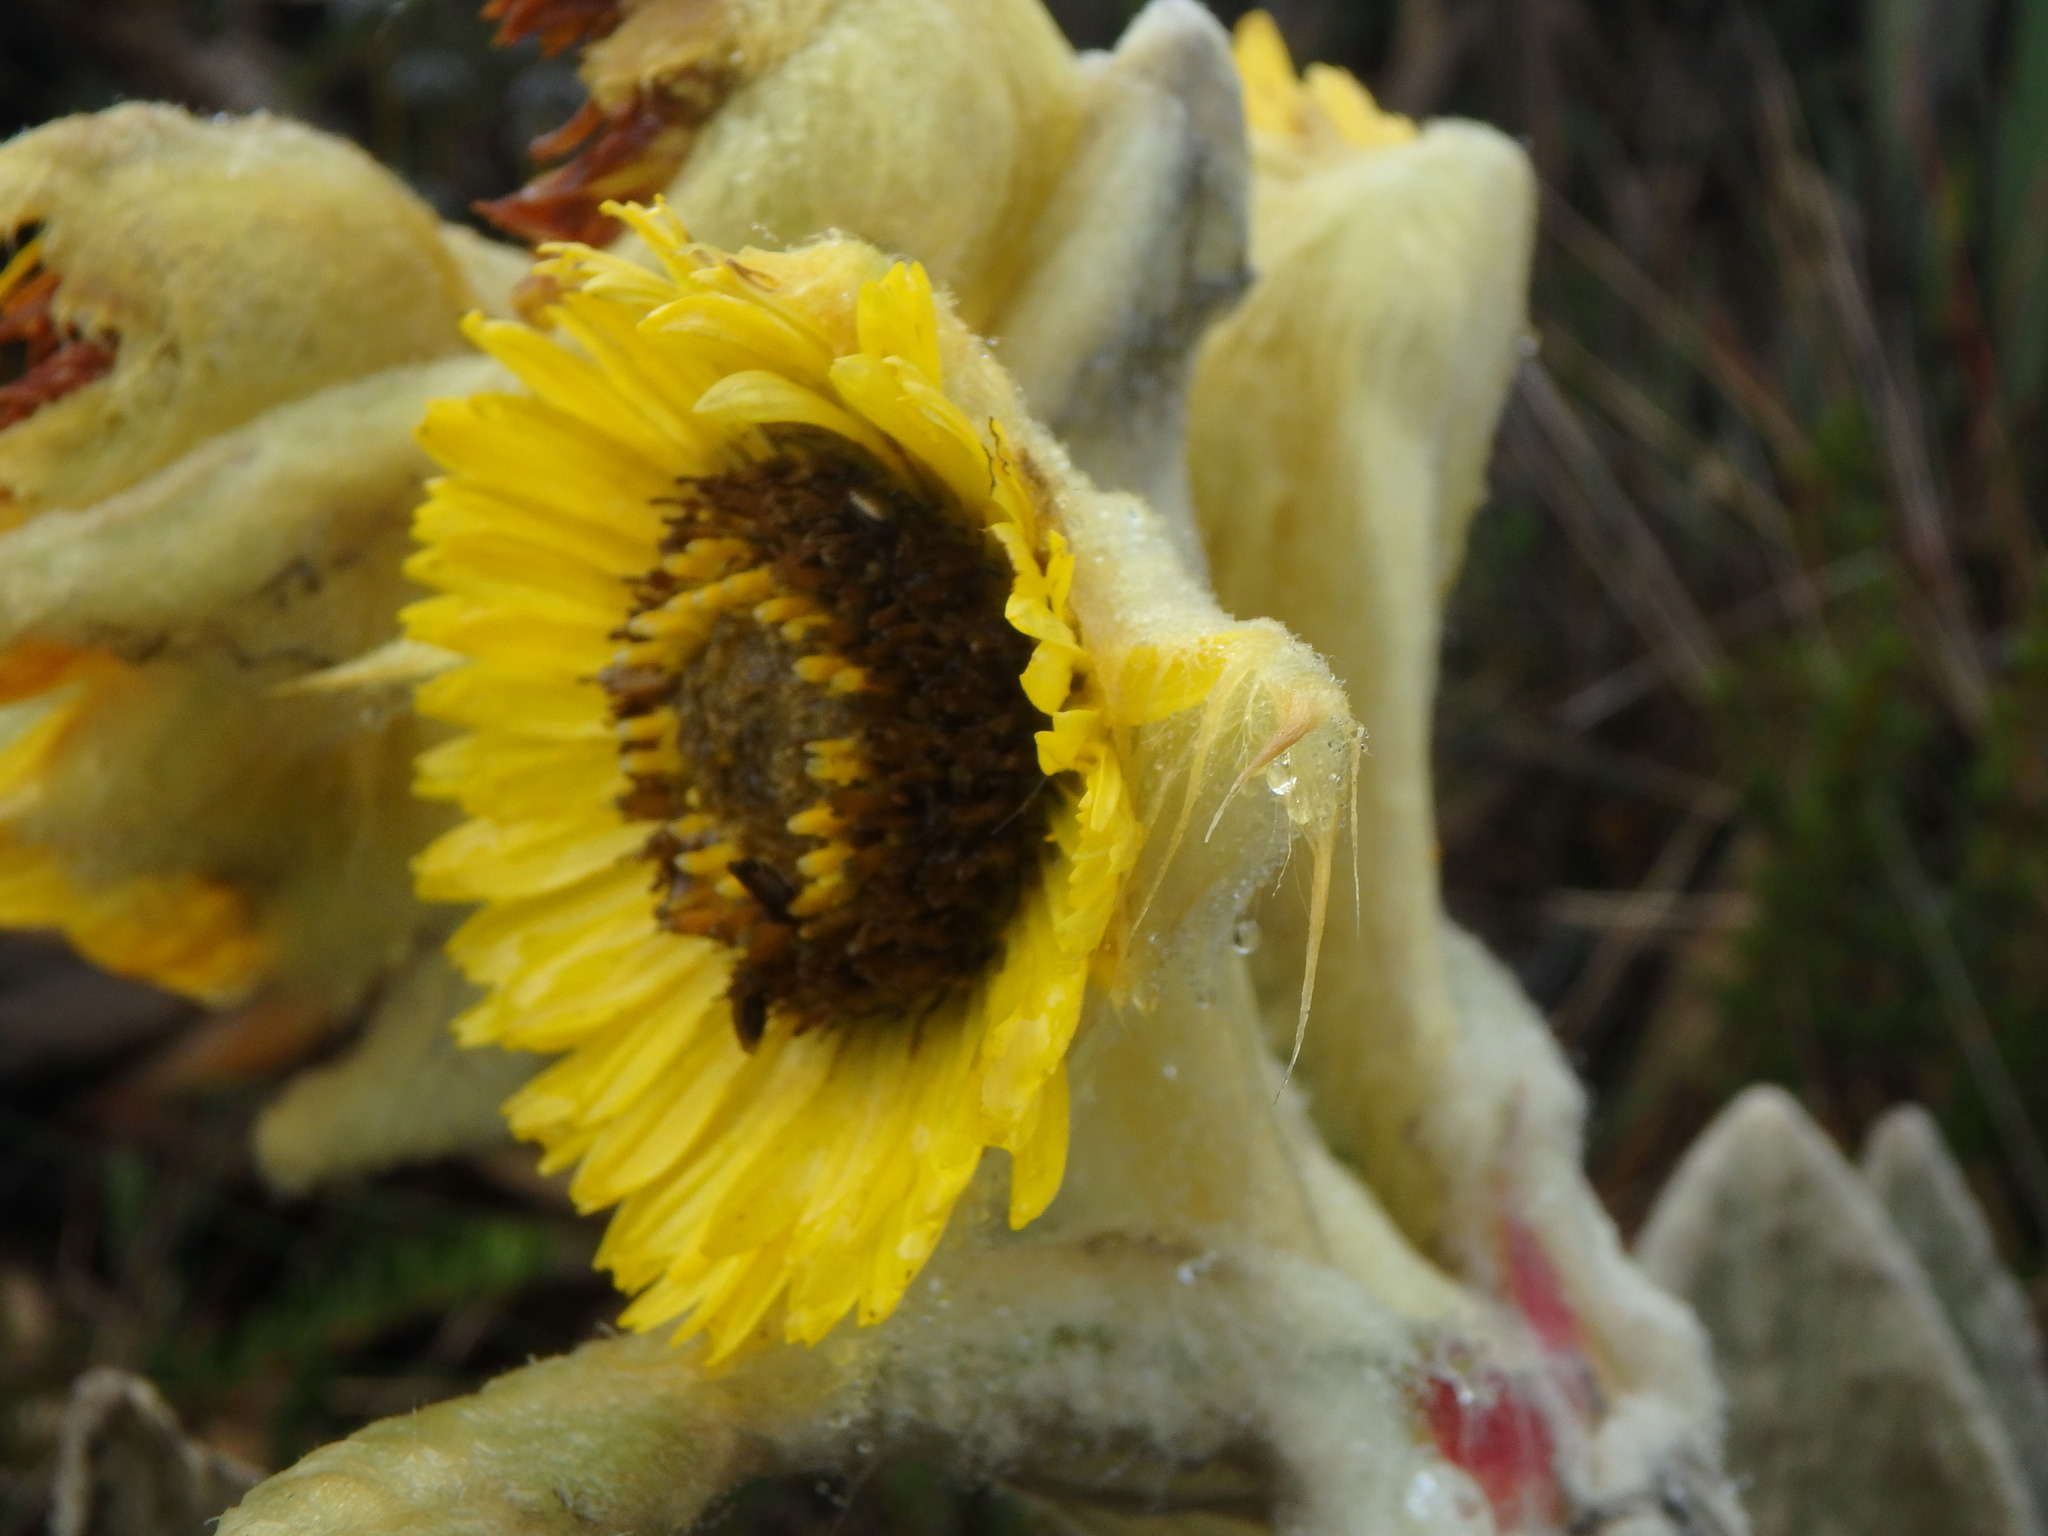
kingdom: Plantae
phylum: Tracheophyta
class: Magnoliopsida
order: Asterales
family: Asteraceae
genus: Espeletia
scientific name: Espeletia barclayana
